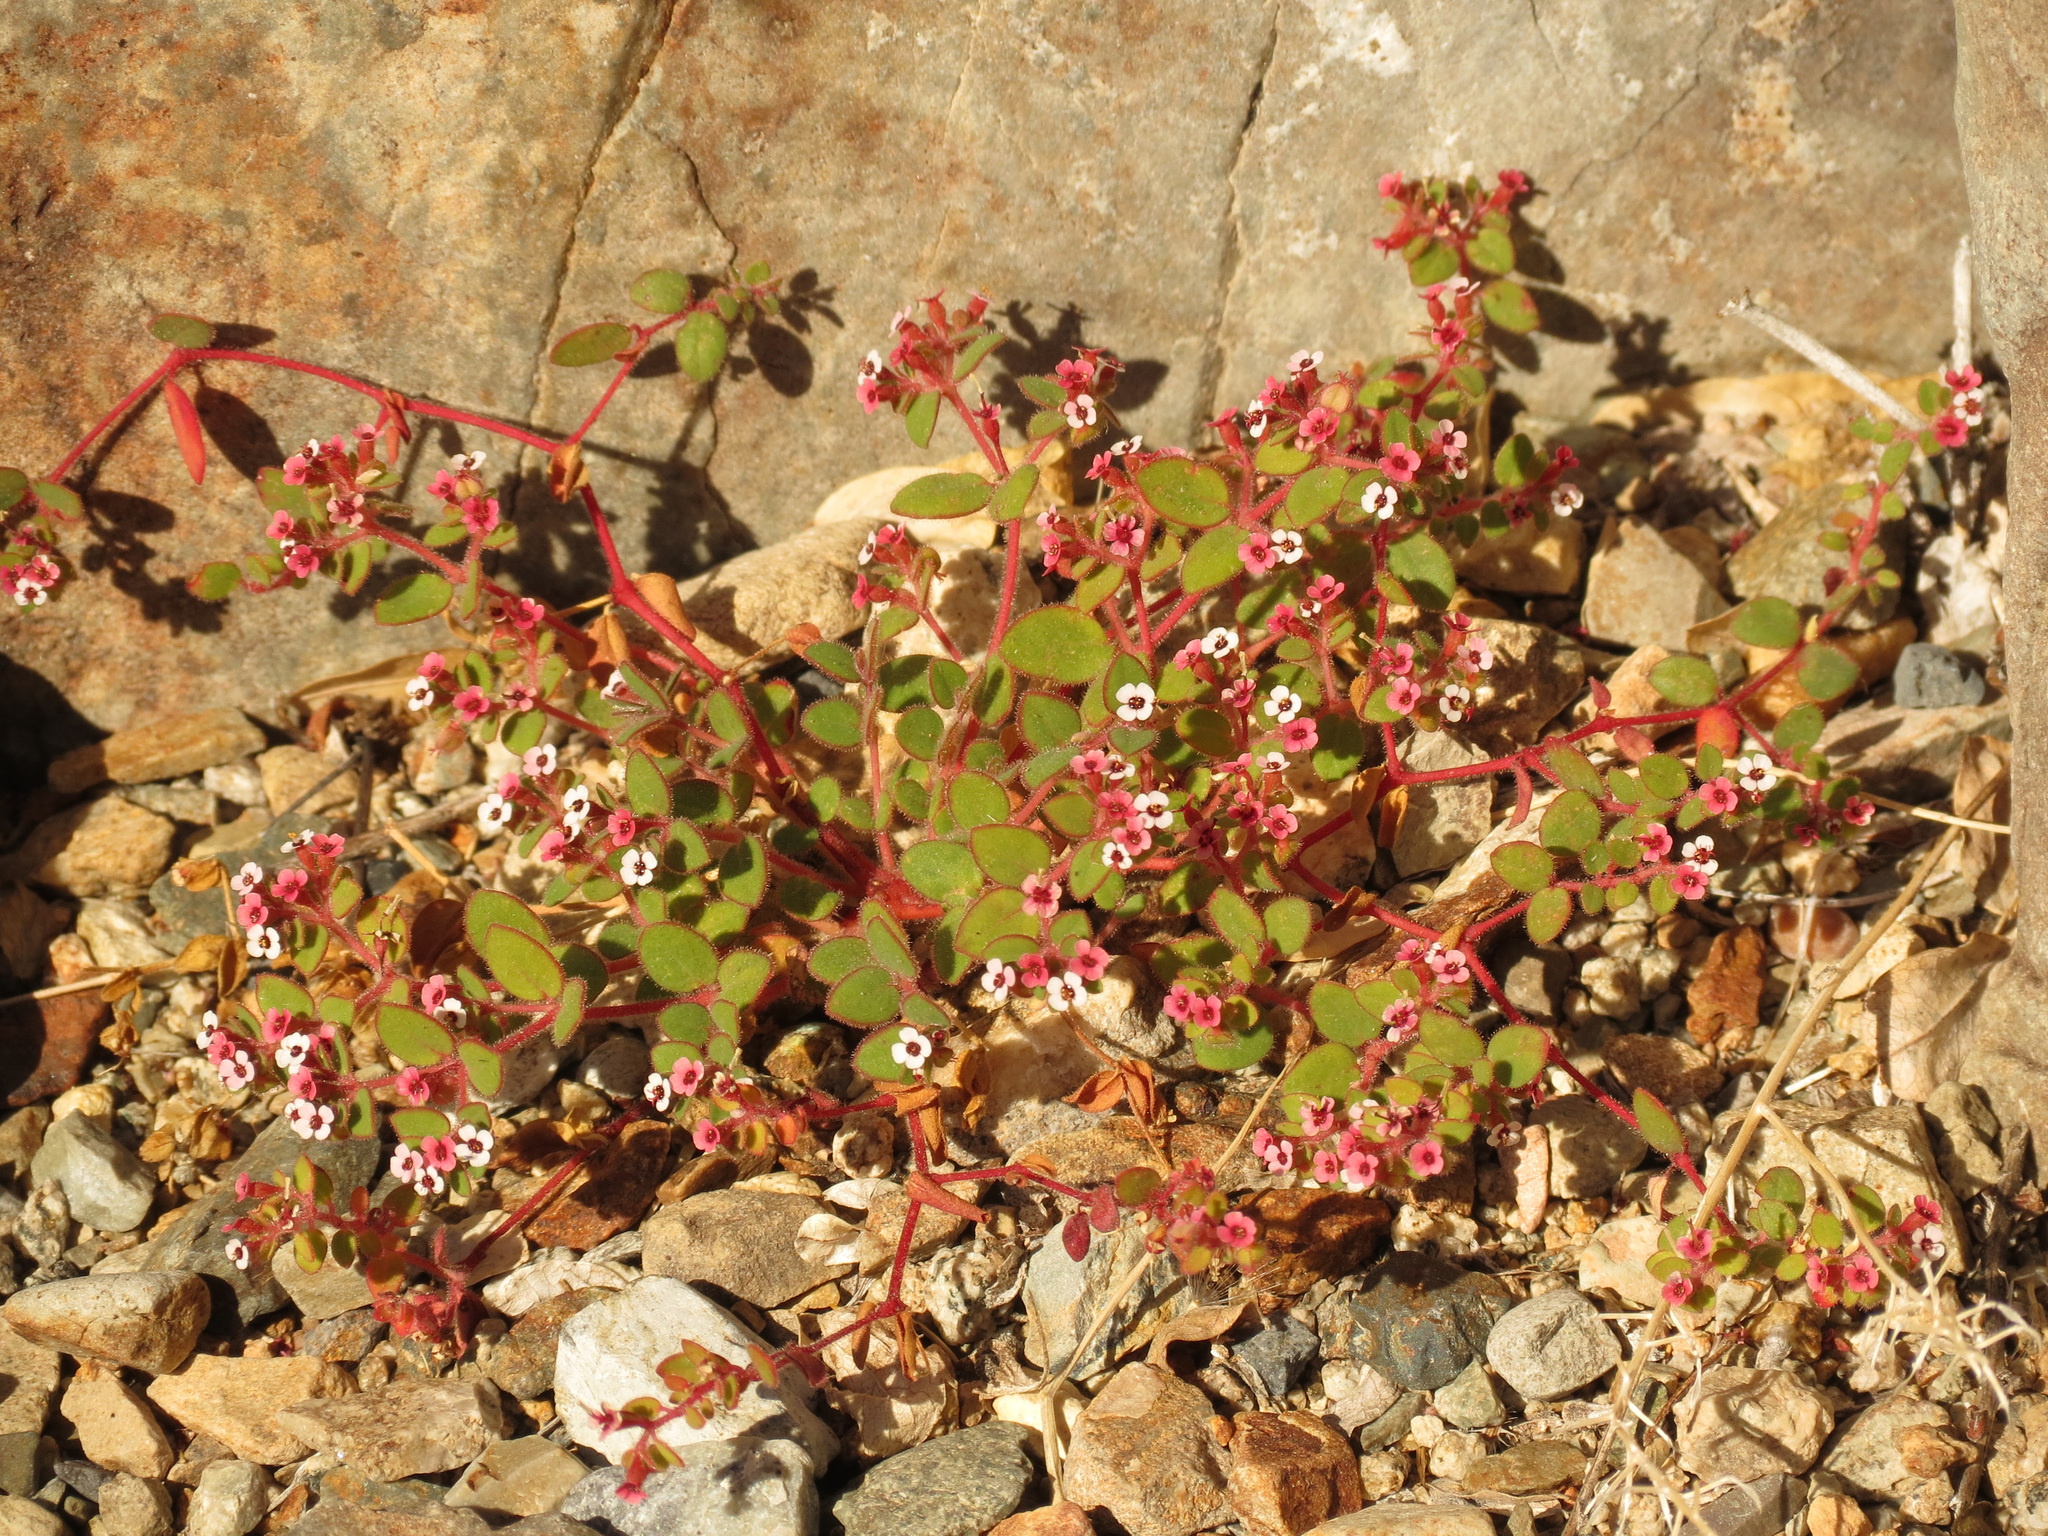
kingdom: Plantae
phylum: Tracheophyta
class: Magnoliopsida
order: Malpighiales
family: Euphorbiaceae
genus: Euphorbia
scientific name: Euphorbia arizonica
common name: Arizona spurge
